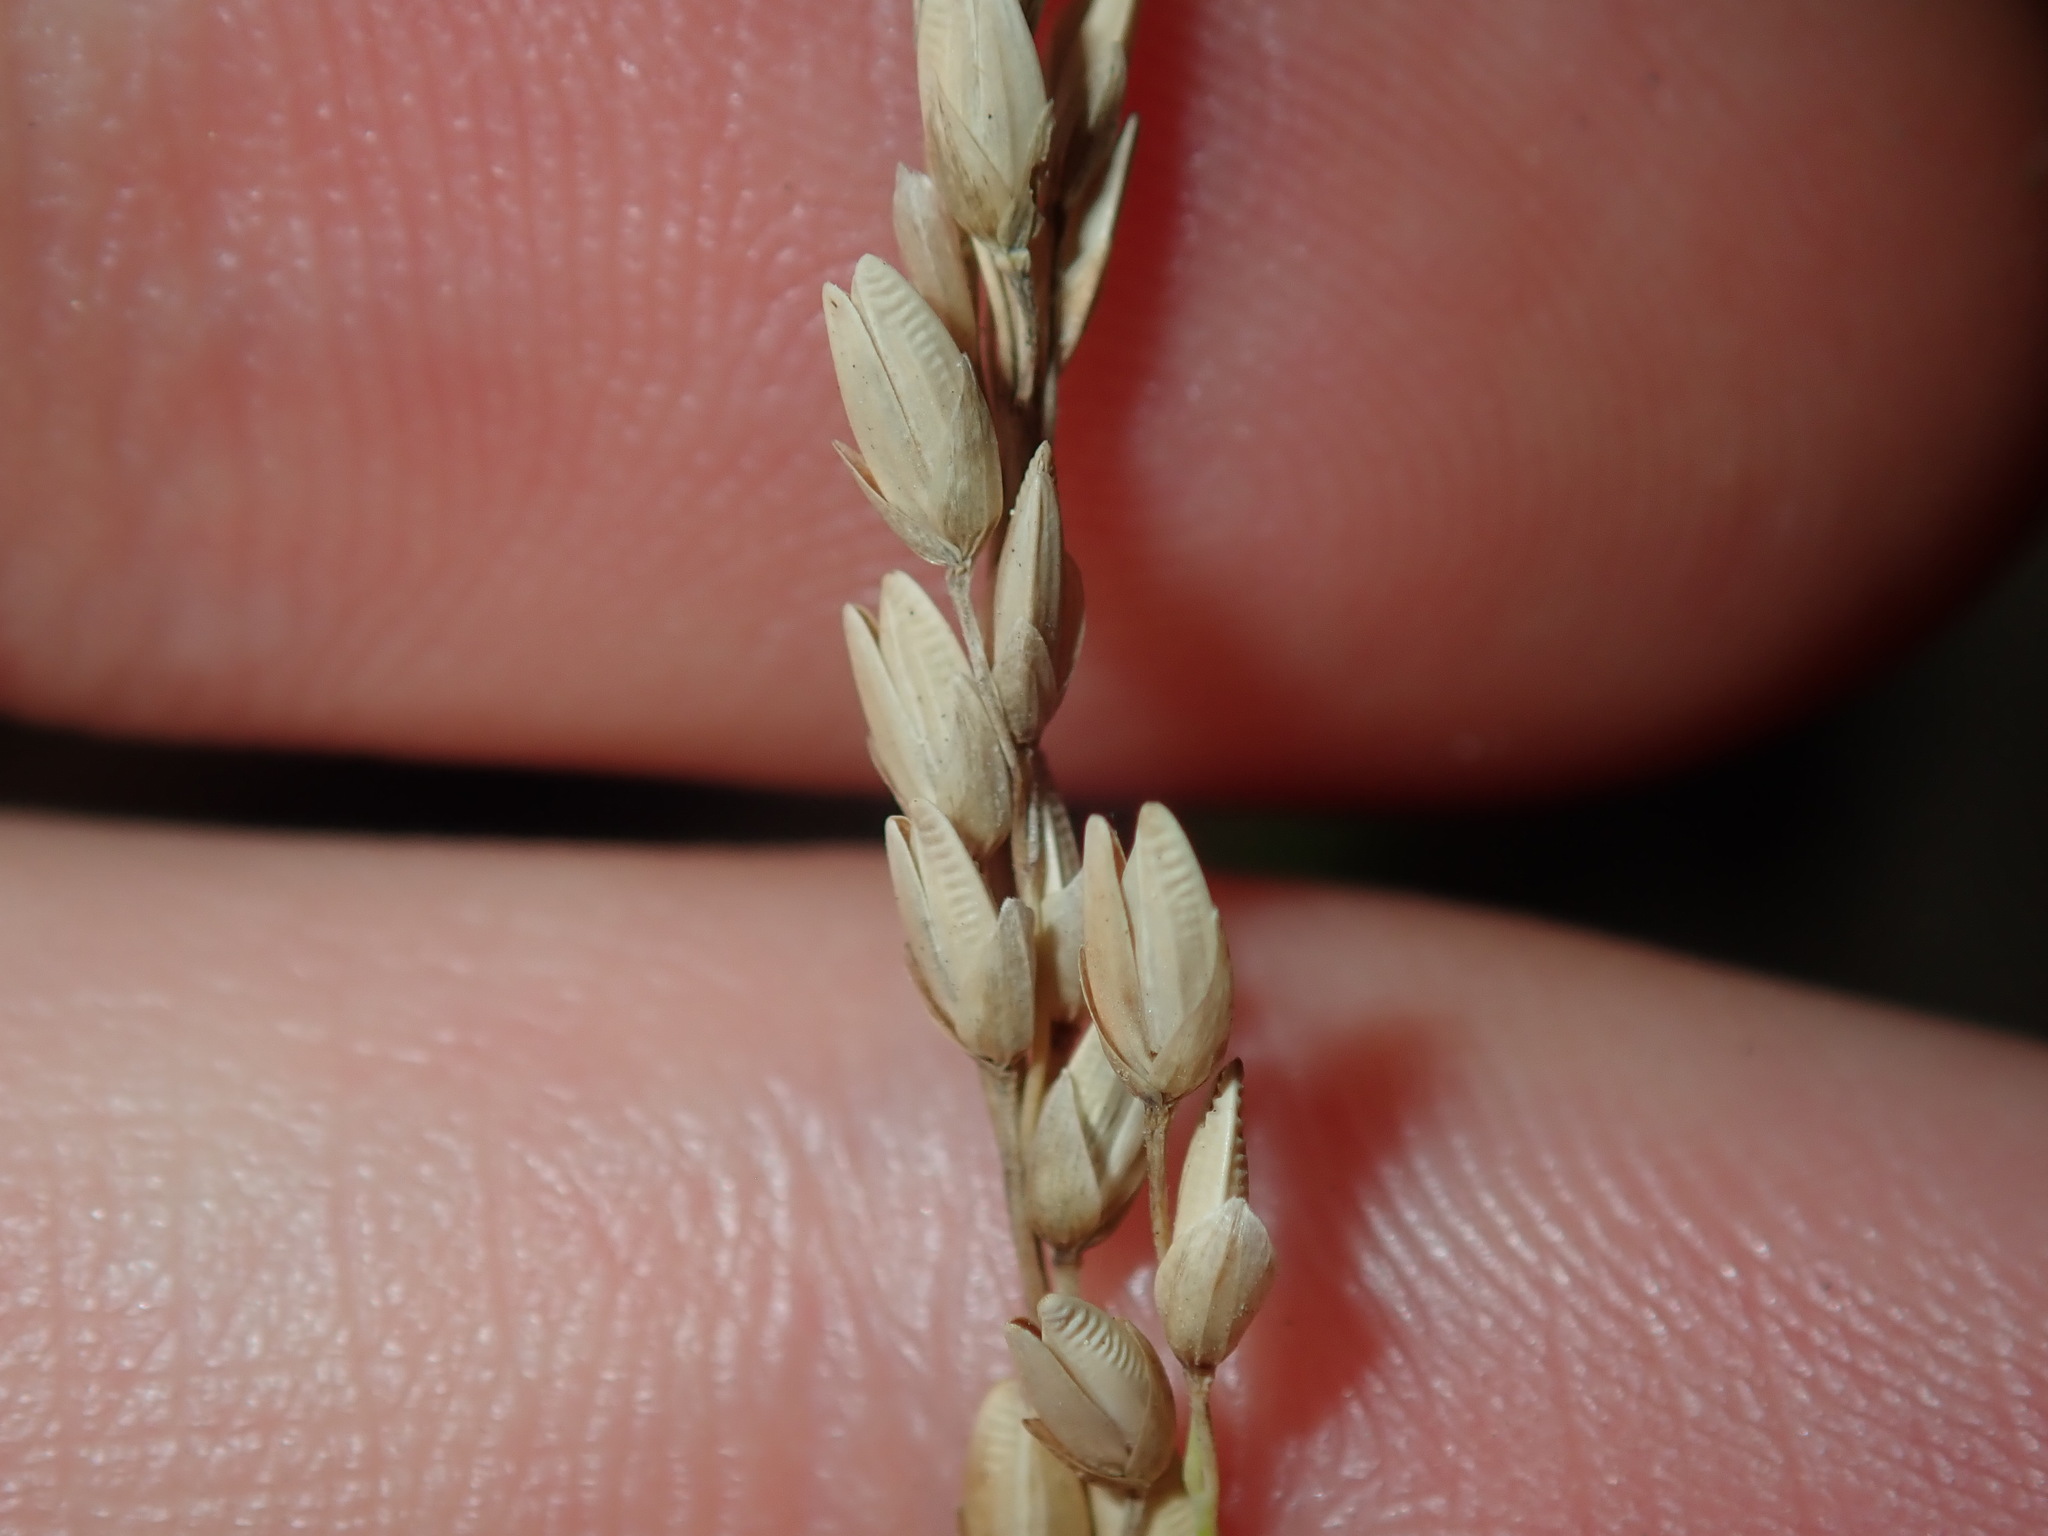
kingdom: Plantae
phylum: Tracheophyta
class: Liliopsida
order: Poales
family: Poaceae
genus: Ehrharta
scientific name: Ehrharta erecta
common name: Panic veldtgrass
